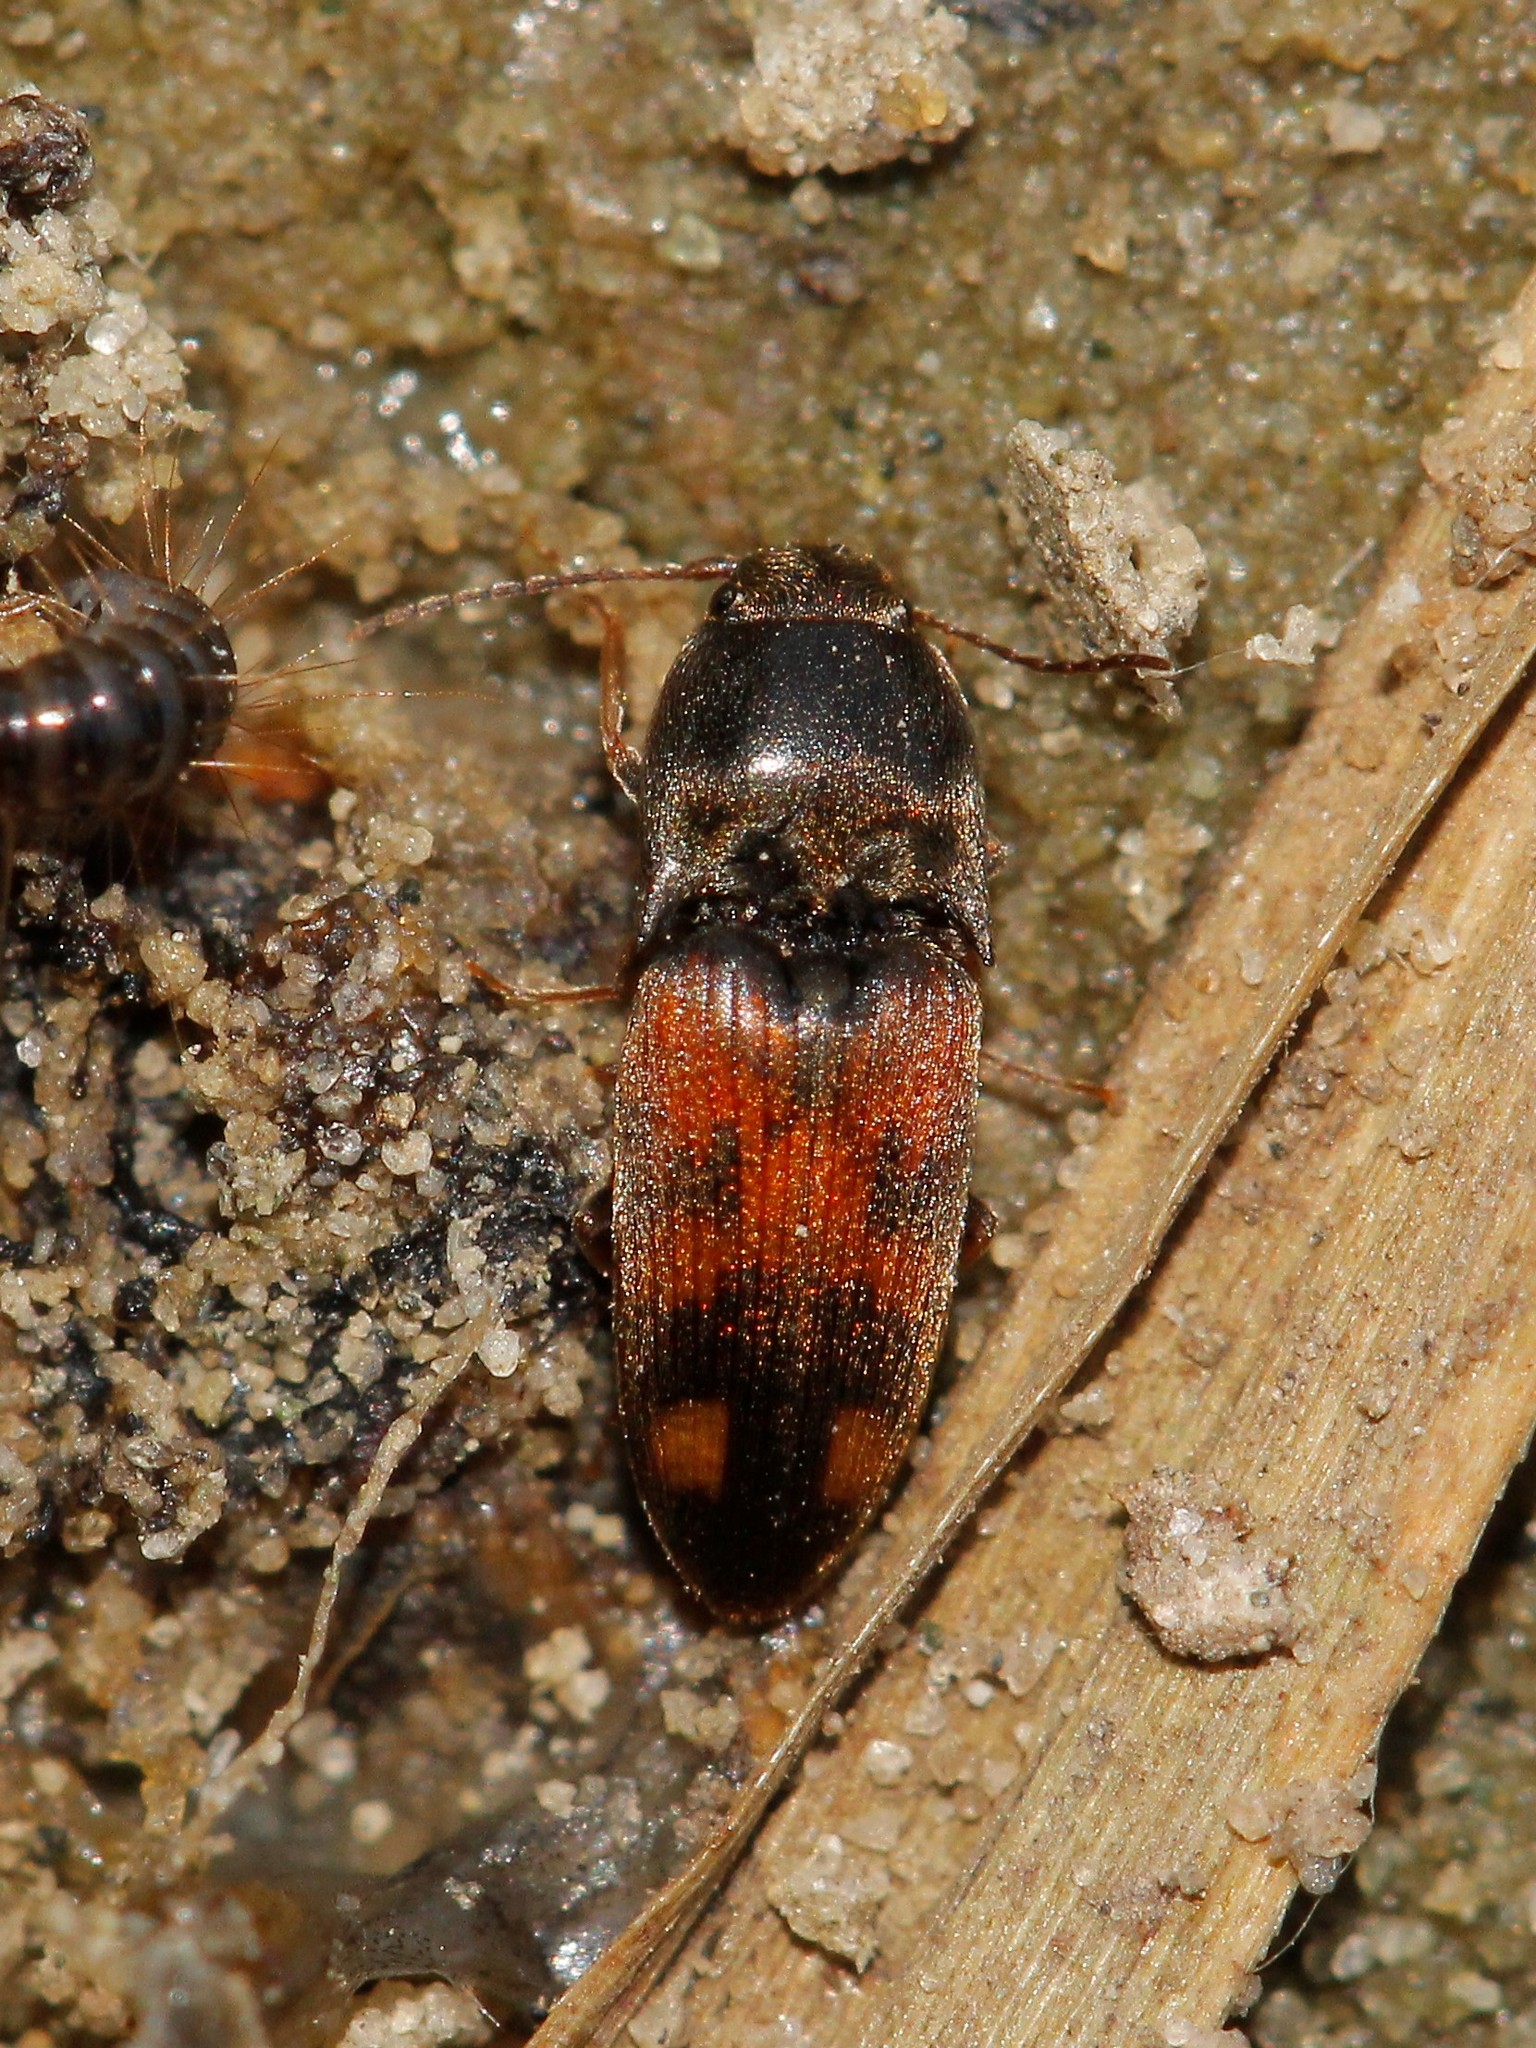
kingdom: Animalia
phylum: Arthropoda
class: Insecta
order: Coleoptera
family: Elateridae
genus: Drasterius
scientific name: Drasterius bimaculatus
